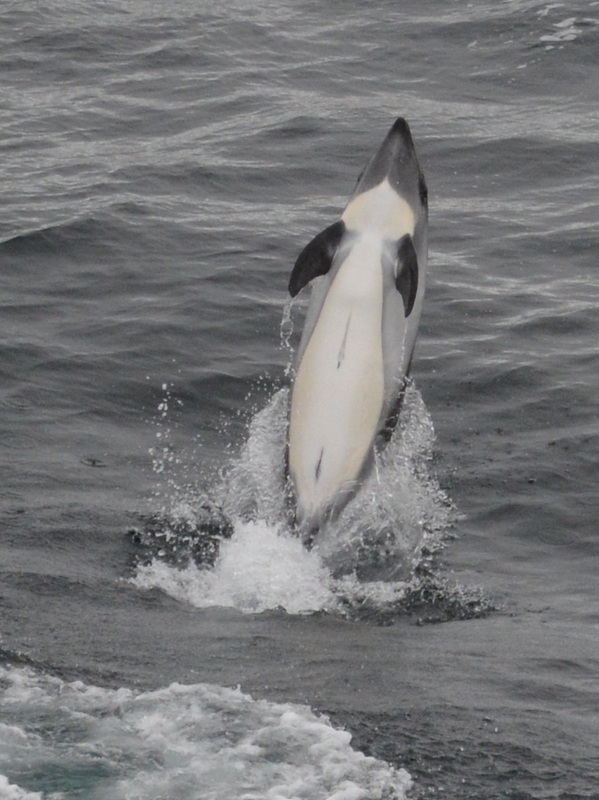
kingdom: Animalia
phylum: Chordata
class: Mammalia
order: Cetacea
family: Delphinidae
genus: Lagenorhynchus
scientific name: Lagenorhynchus australis
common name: Peale's dolphin
